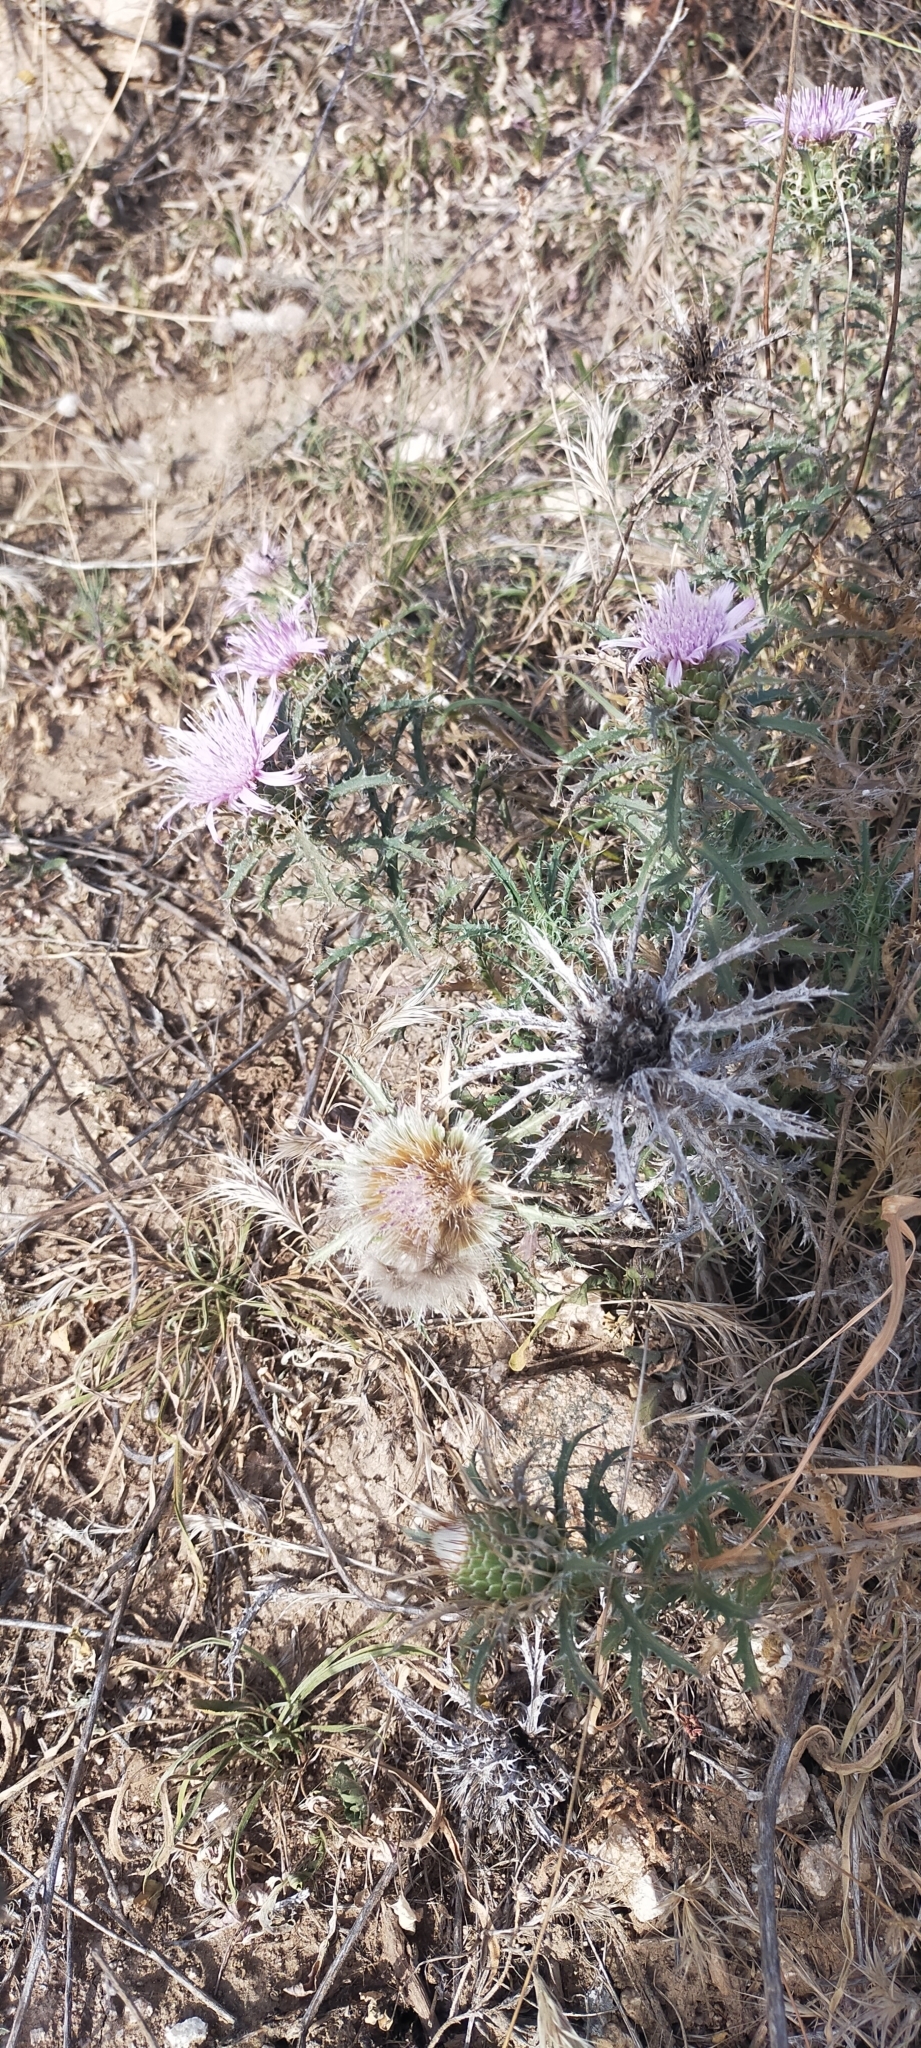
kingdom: Plantae
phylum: Tracheophyta
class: Magnoliopsida
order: Asterales
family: Asteraceae
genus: Atractylis
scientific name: Atractylis humilis
